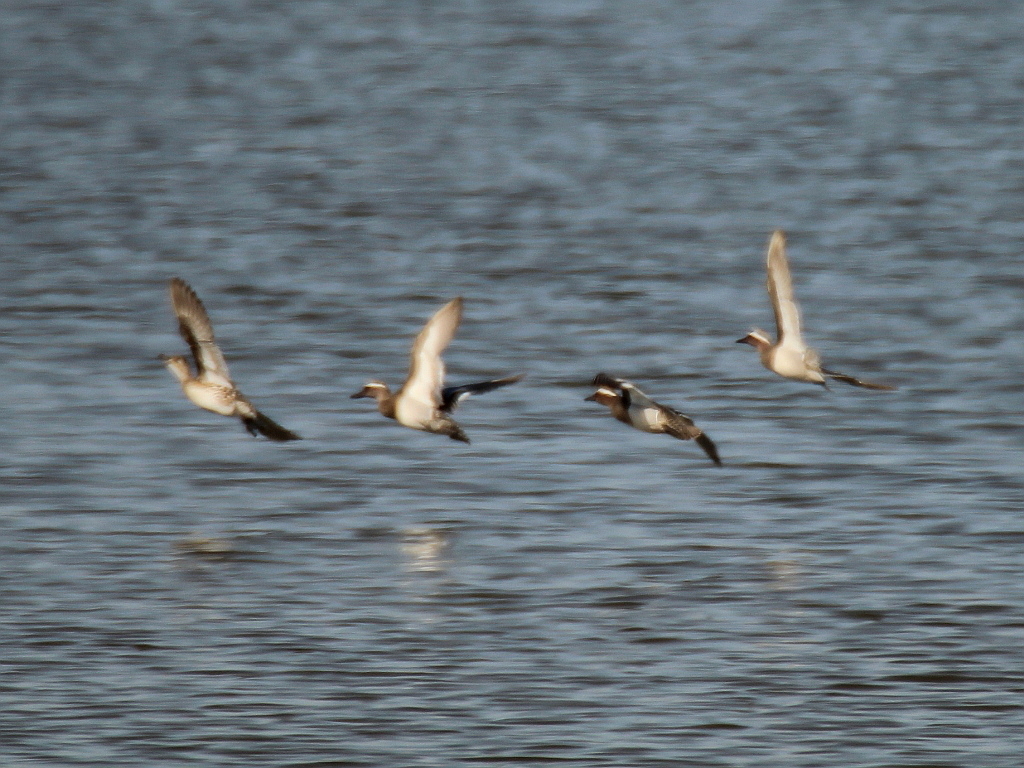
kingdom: Animalia
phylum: Chordata
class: Aves
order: Anseriformes
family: Anatidae
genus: Spatula
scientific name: Spatula querquedula
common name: Garganey
